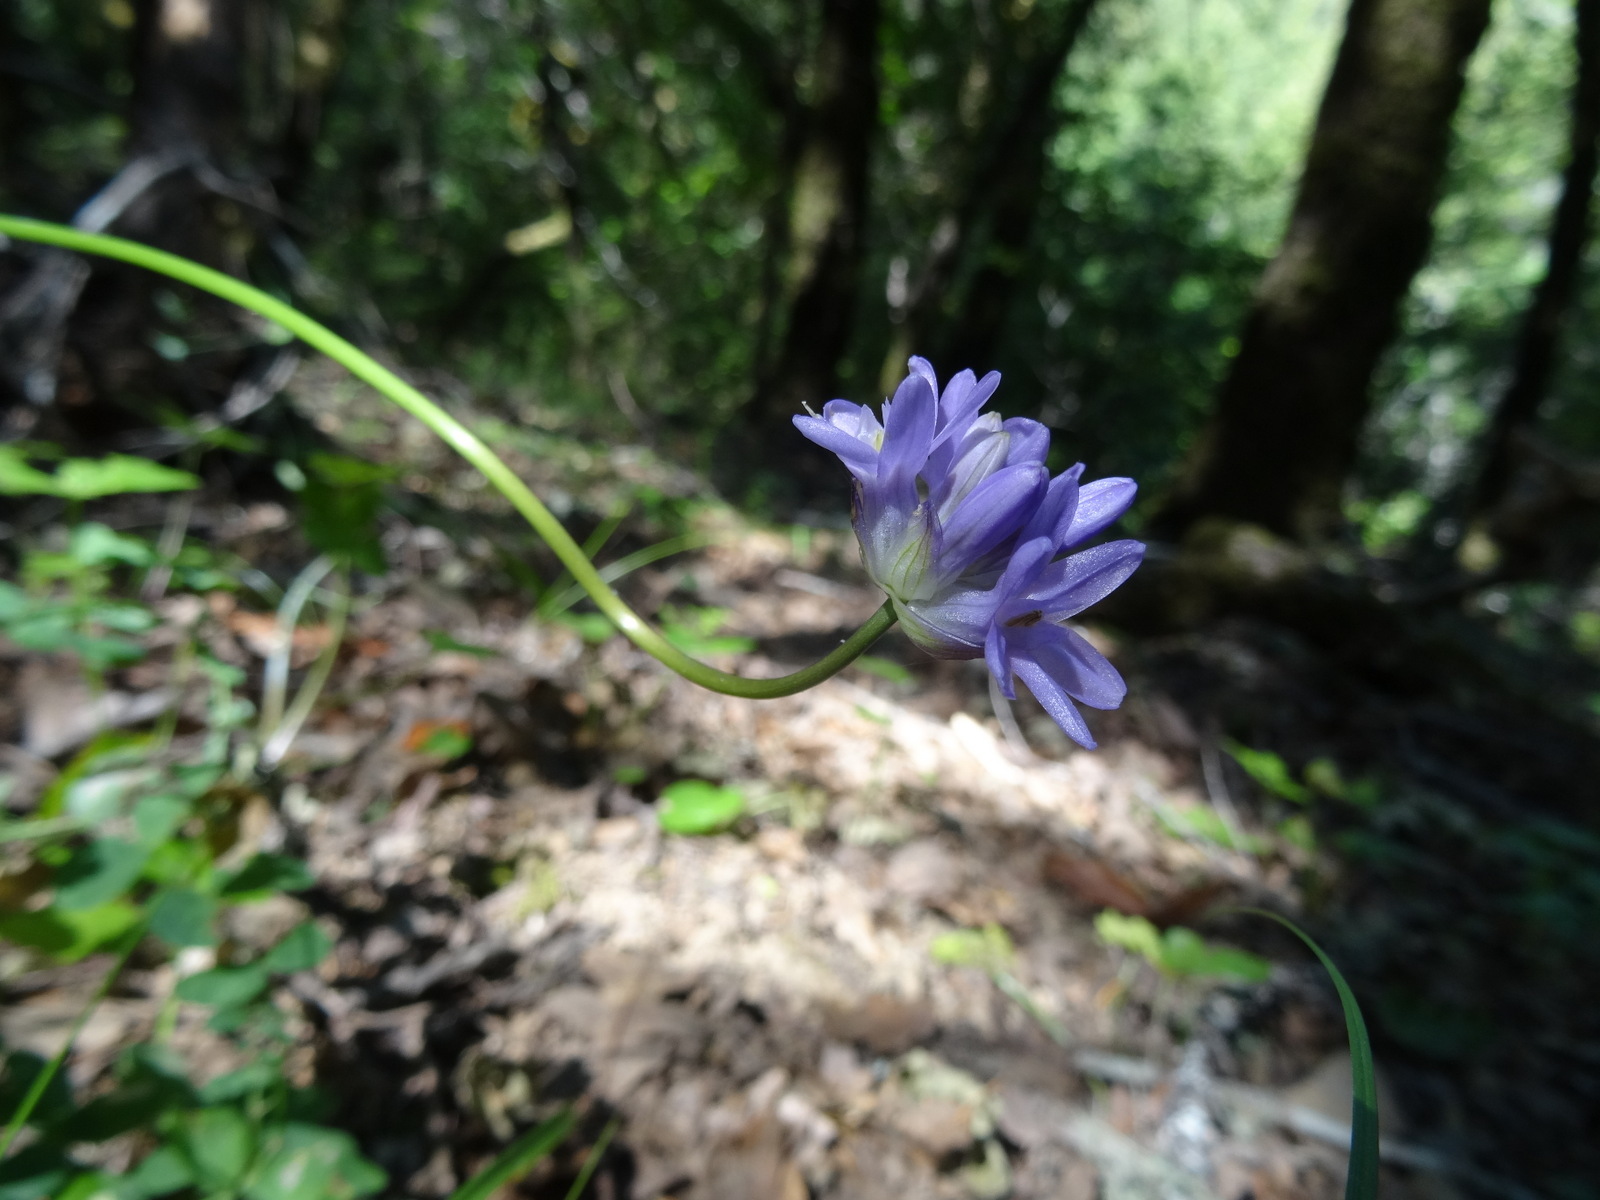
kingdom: Plantae
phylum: Tracheophyta
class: Liliopsida
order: Asparagales
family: Asparagaceae
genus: Dichelostemma
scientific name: Dichelostemma congestum
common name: Fork-tooth ookow
